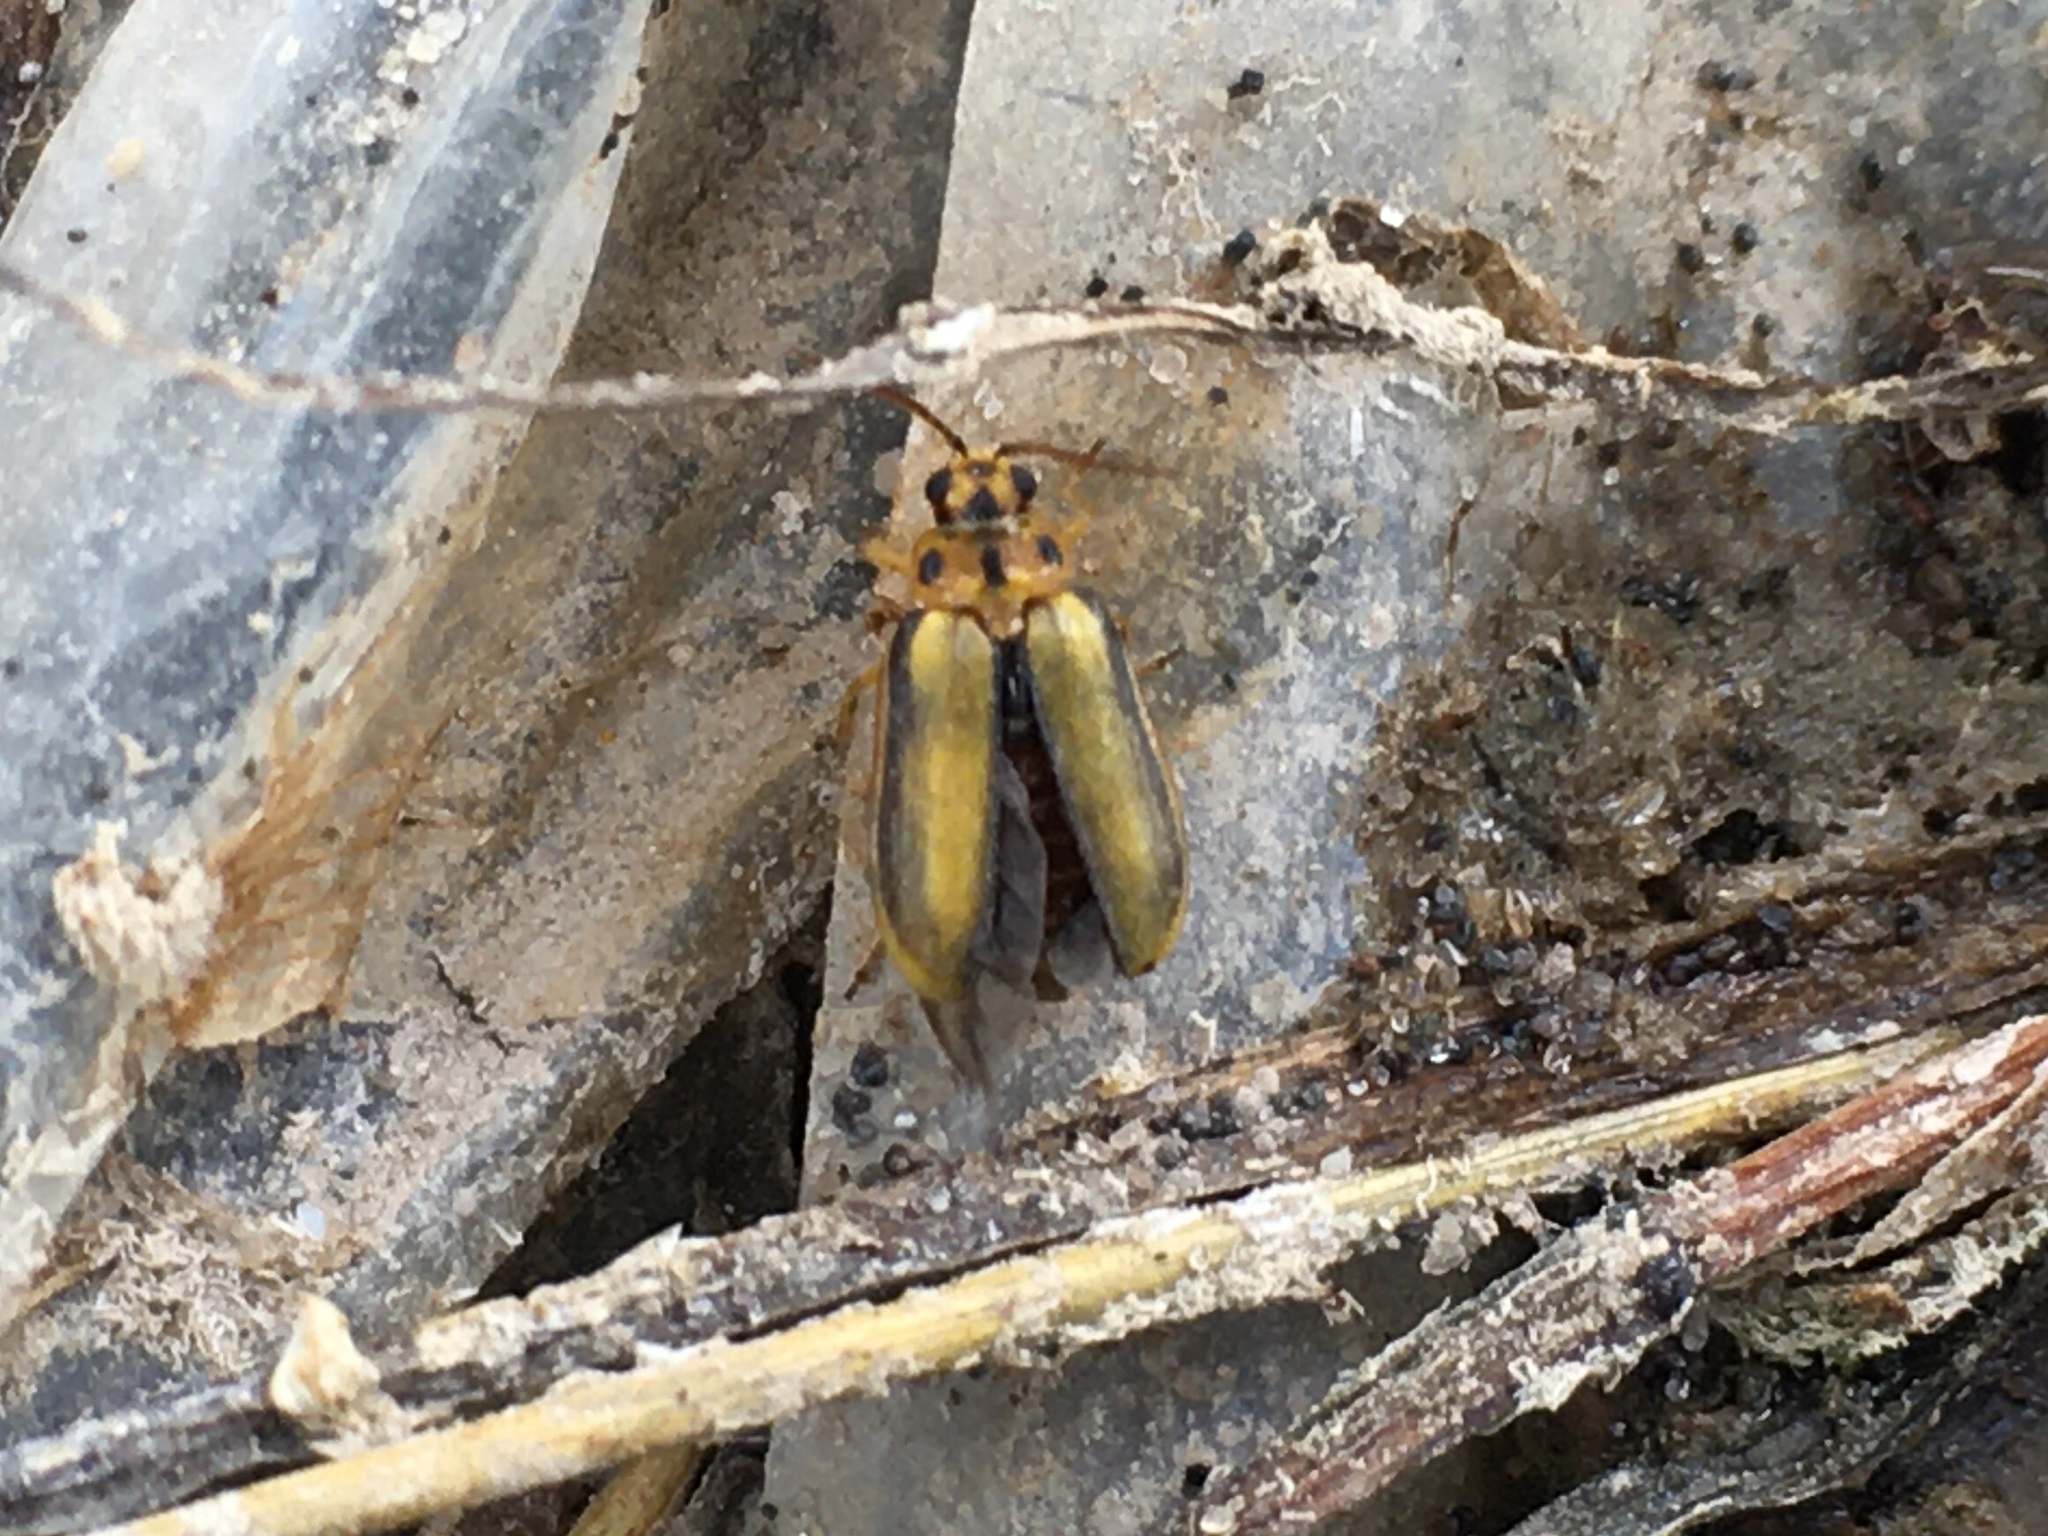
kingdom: Animalia
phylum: Arthropoda
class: Insecta
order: Coleoptera
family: Chrysomelidae
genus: Xanthogaleruca
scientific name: Xanthogaleruca luteola
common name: Elm leaf beetle
